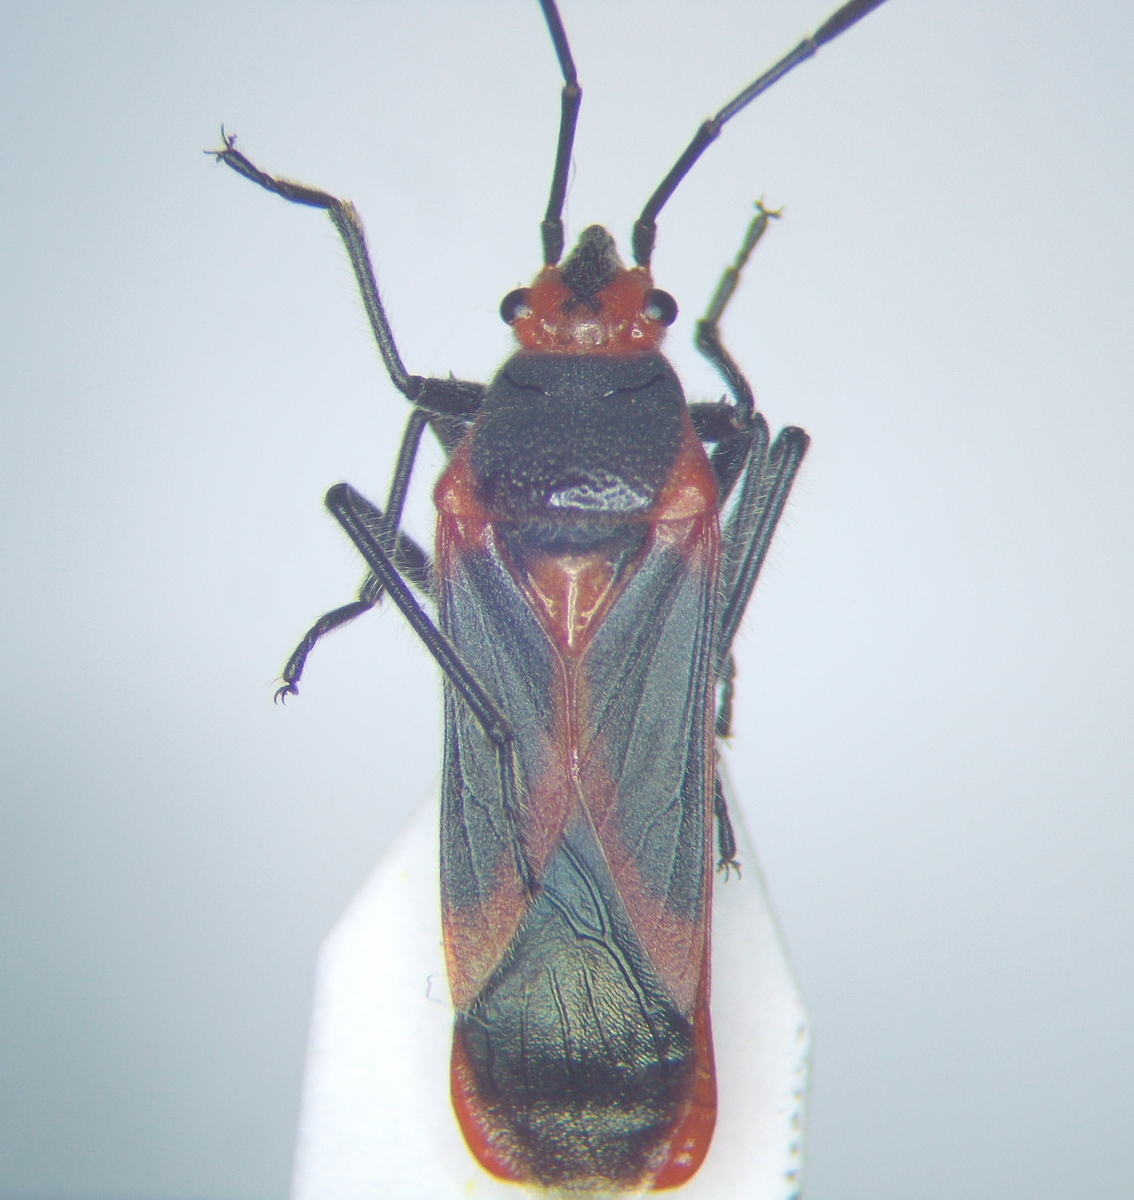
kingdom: Animalia
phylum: Arthropoda
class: Insecta
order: Hemiptera
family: Lygaeidae
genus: Caenocoris
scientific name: Caenocoris nerii
